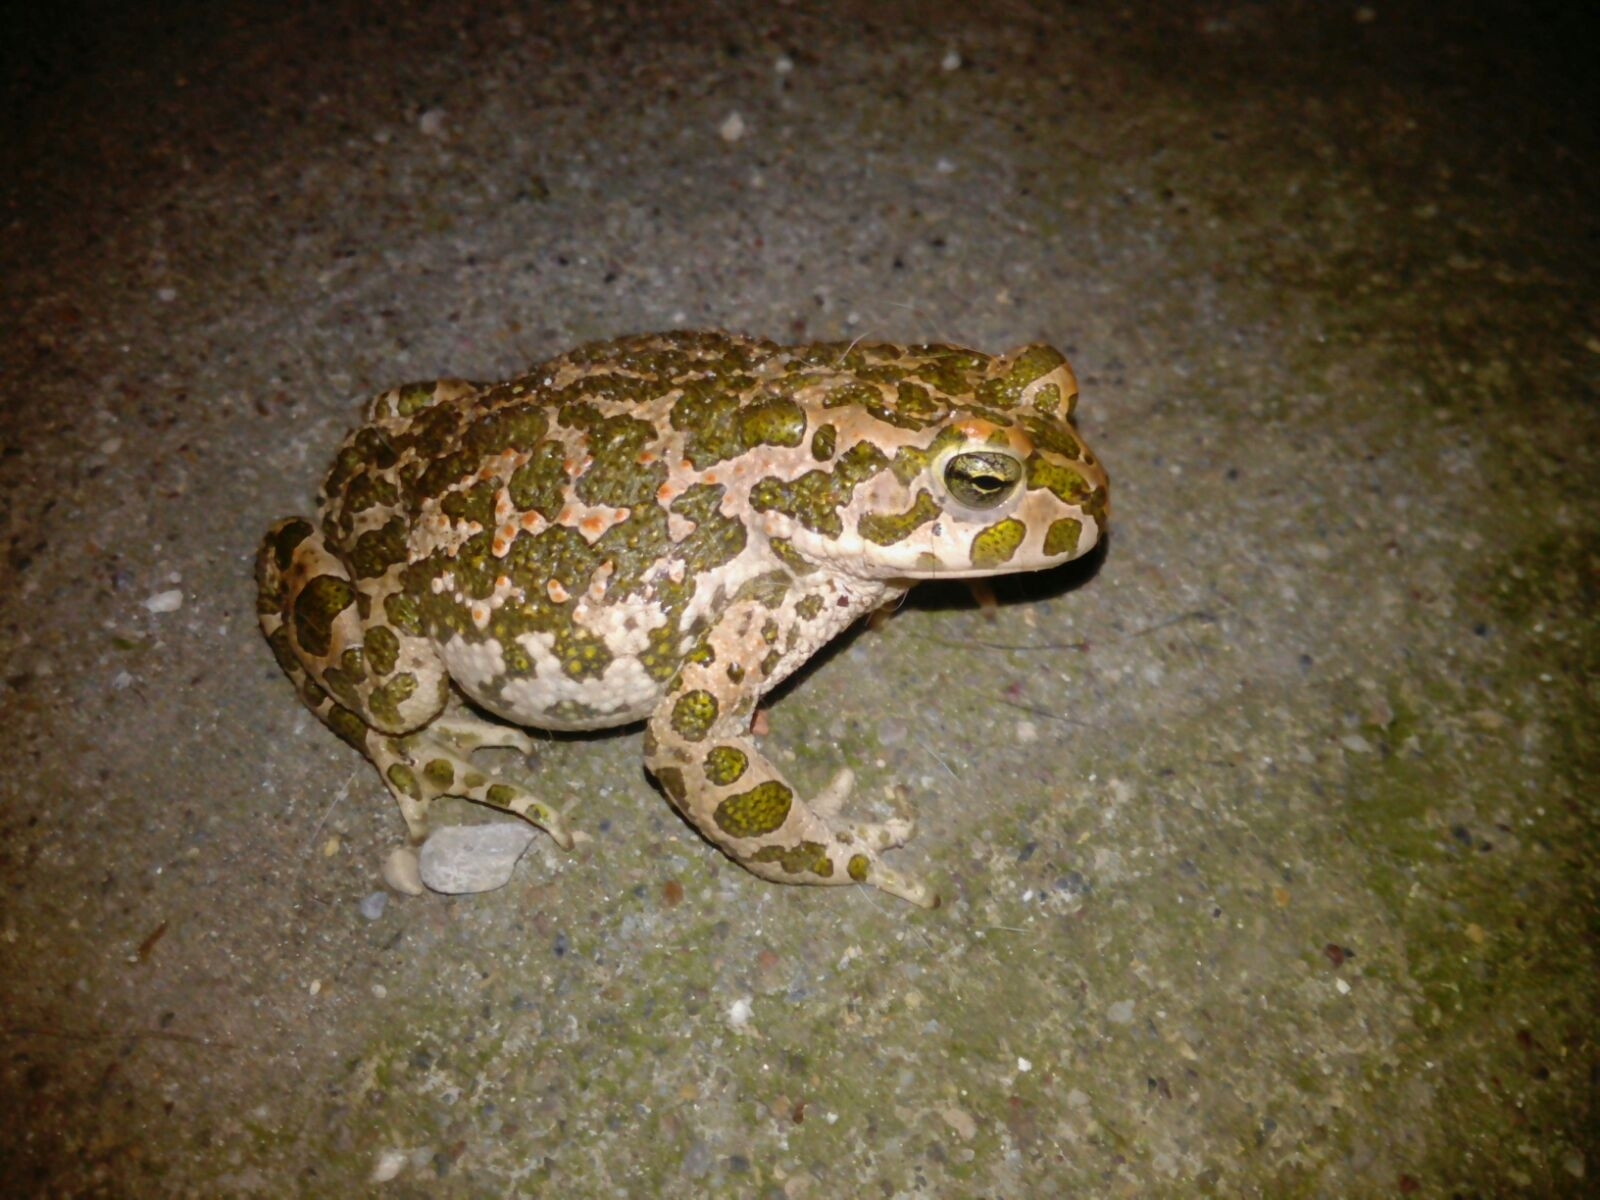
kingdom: Animalia
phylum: Chordata
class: Amphibia
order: Anura
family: Bufonidae
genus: Bufotes
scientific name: Bufotes viridis
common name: European green toad
